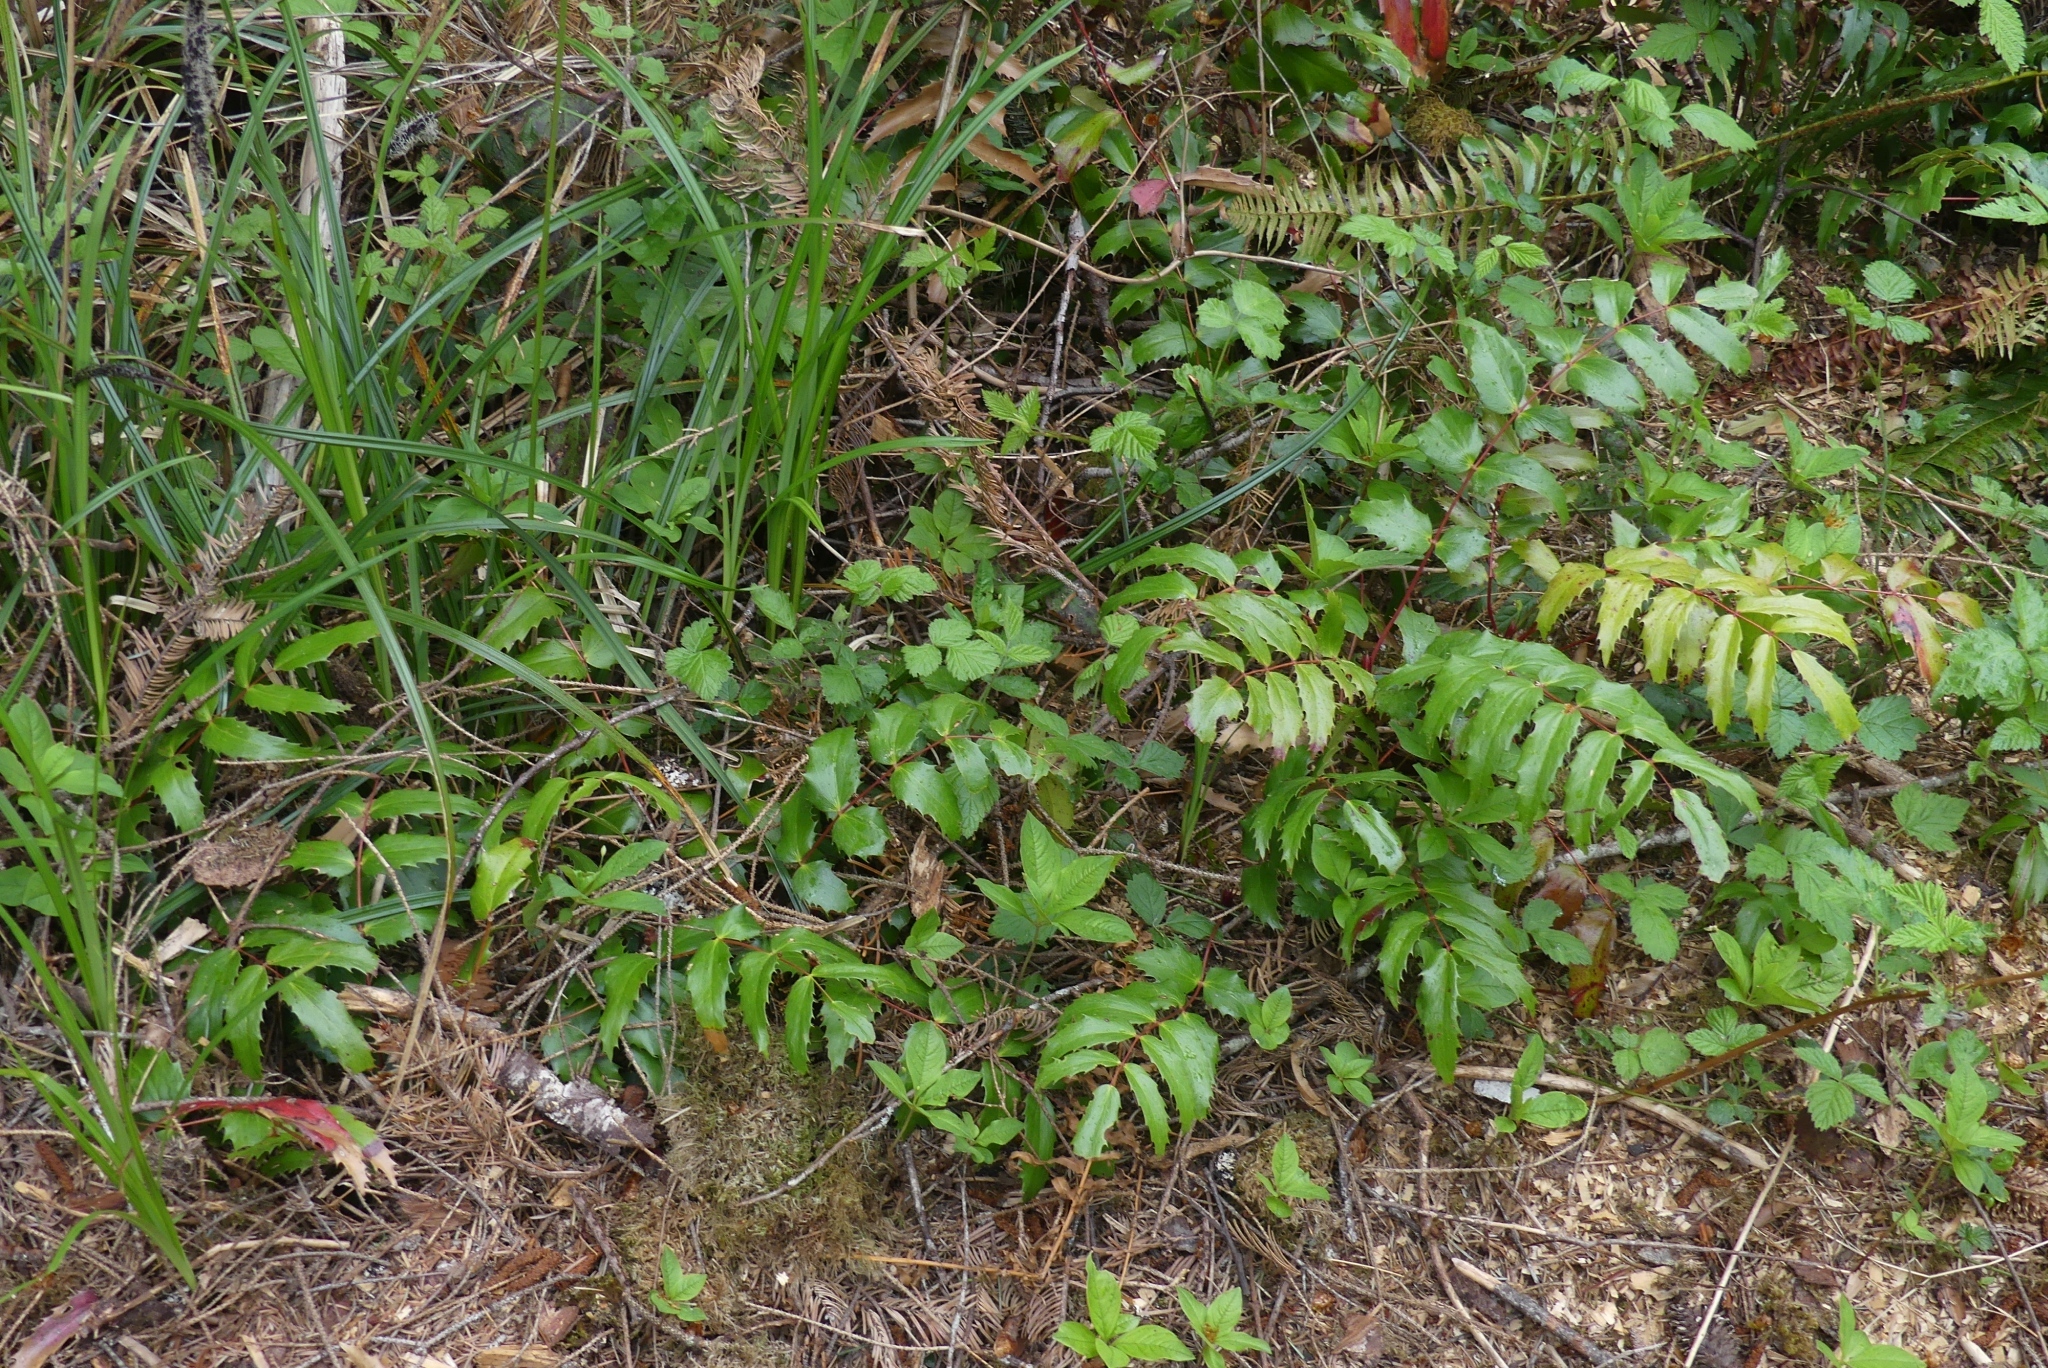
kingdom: Plantae
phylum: Tracheophyta
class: Magnoliopsida
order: Ranunculales
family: Berberidaceae
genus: Mahonia
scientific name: Mahonia nervosa
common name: Cascade oregon-grape
